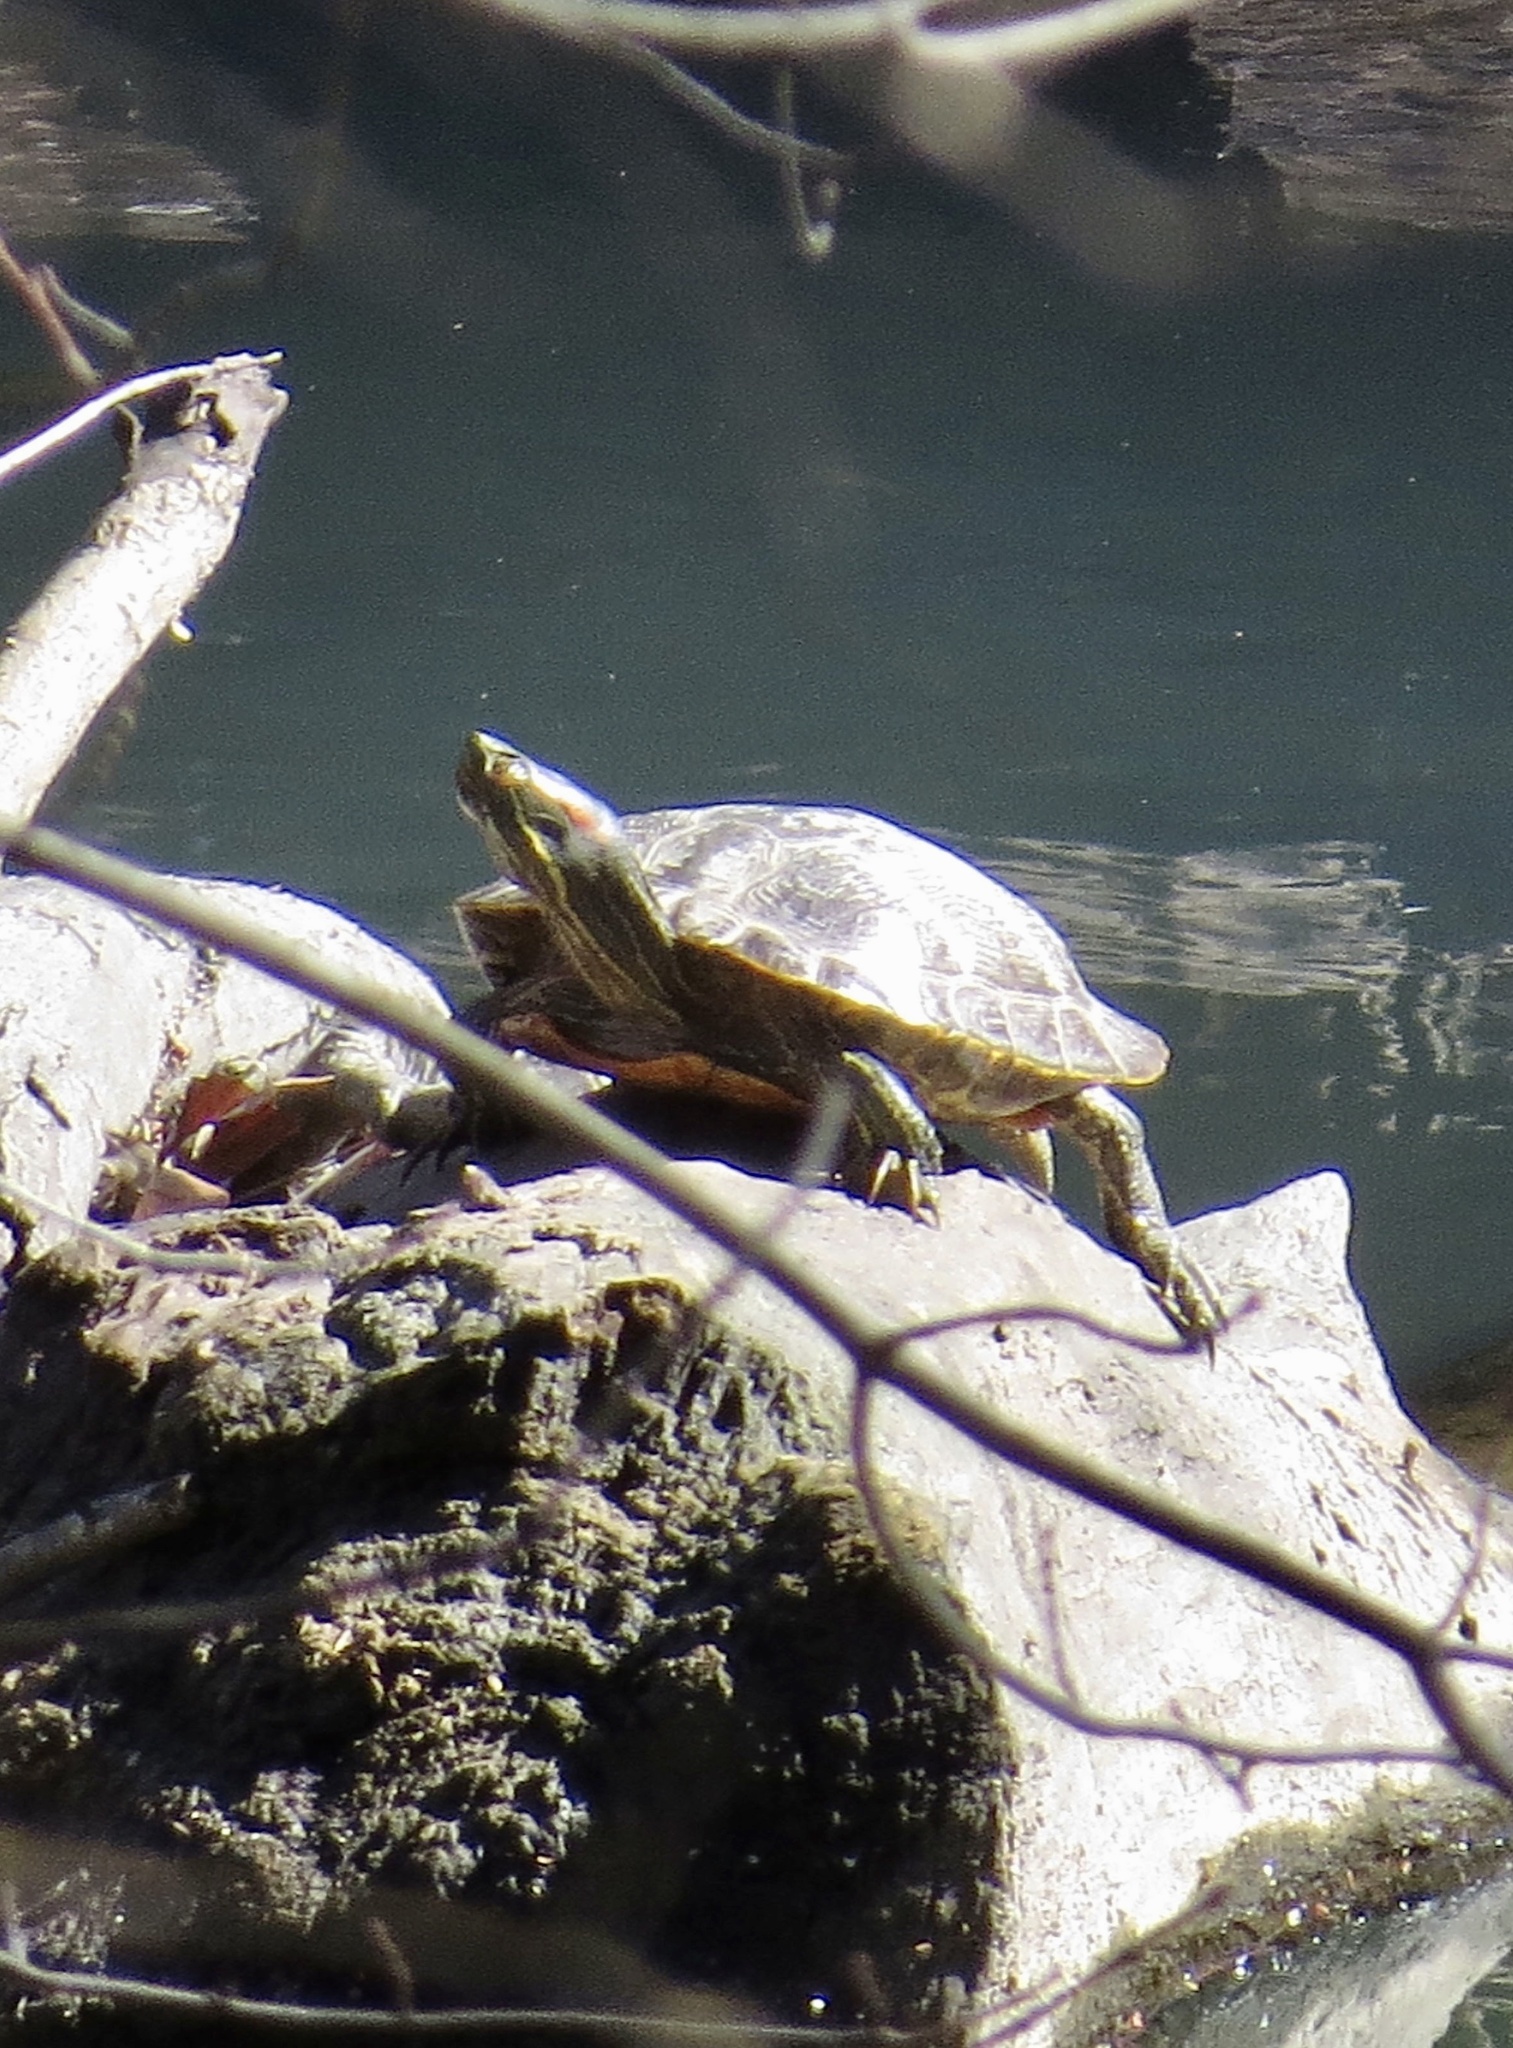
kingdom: Animalia
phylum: Chordata
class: Testudines
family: Emydidae
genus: Trachemys
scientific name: Trachemys scripta
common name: Slider
